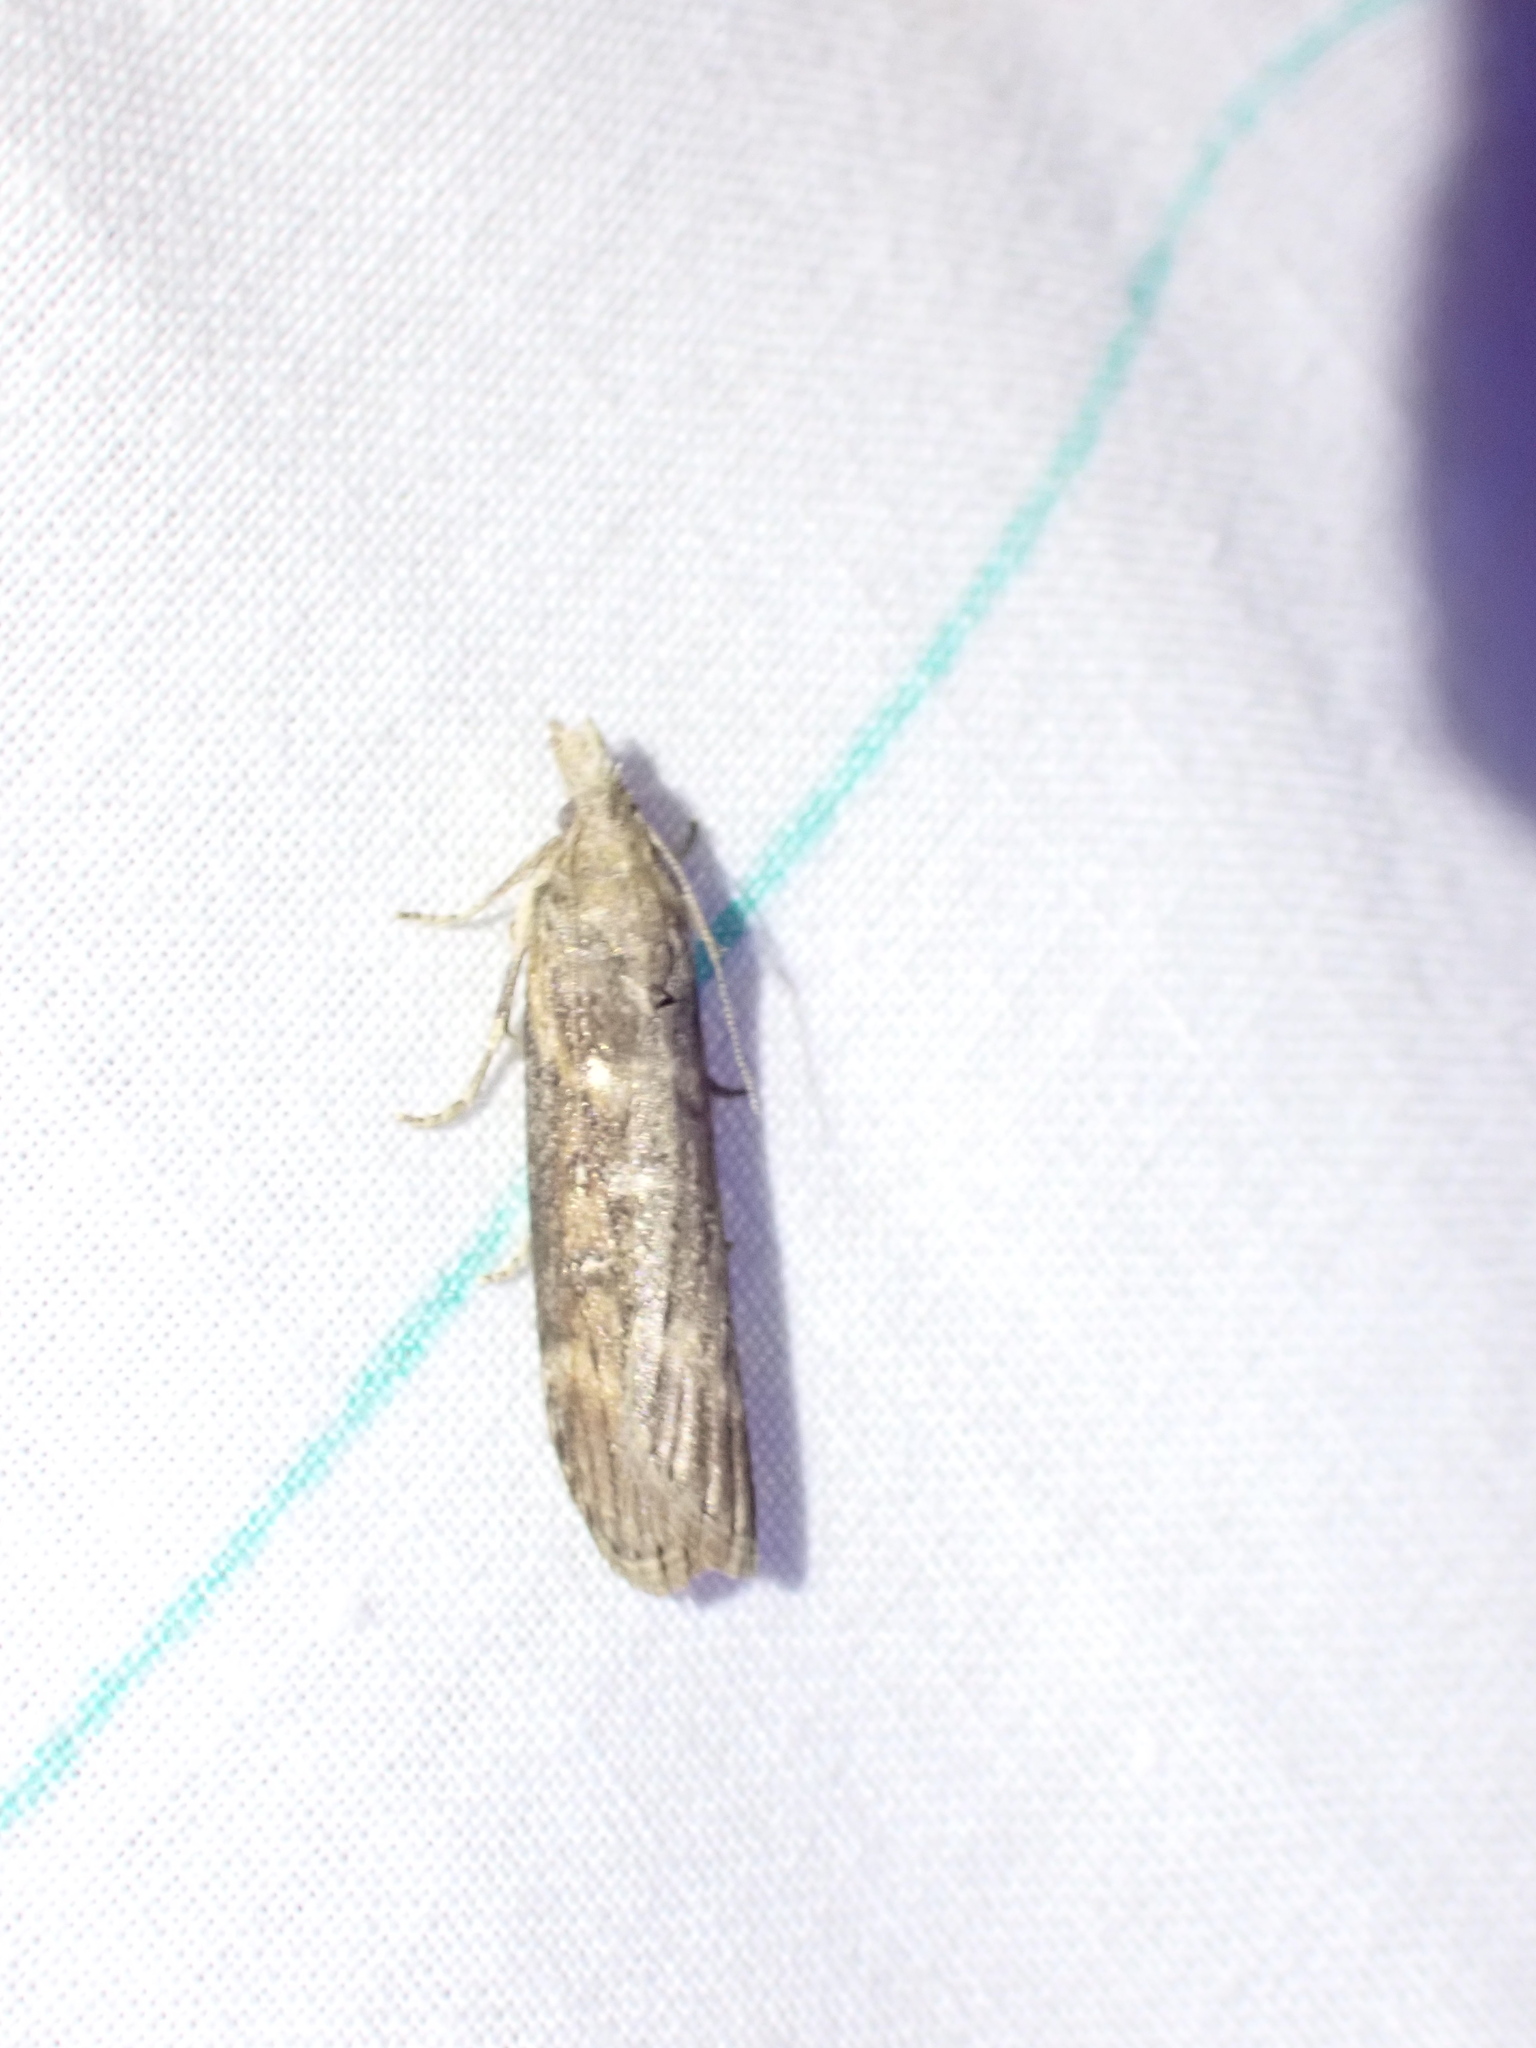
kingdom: Animalia
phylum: Arthropoda
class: Insecta
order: Lepidoptera
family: Pyralidae
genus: Lamoria
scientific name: Lamoria anella
